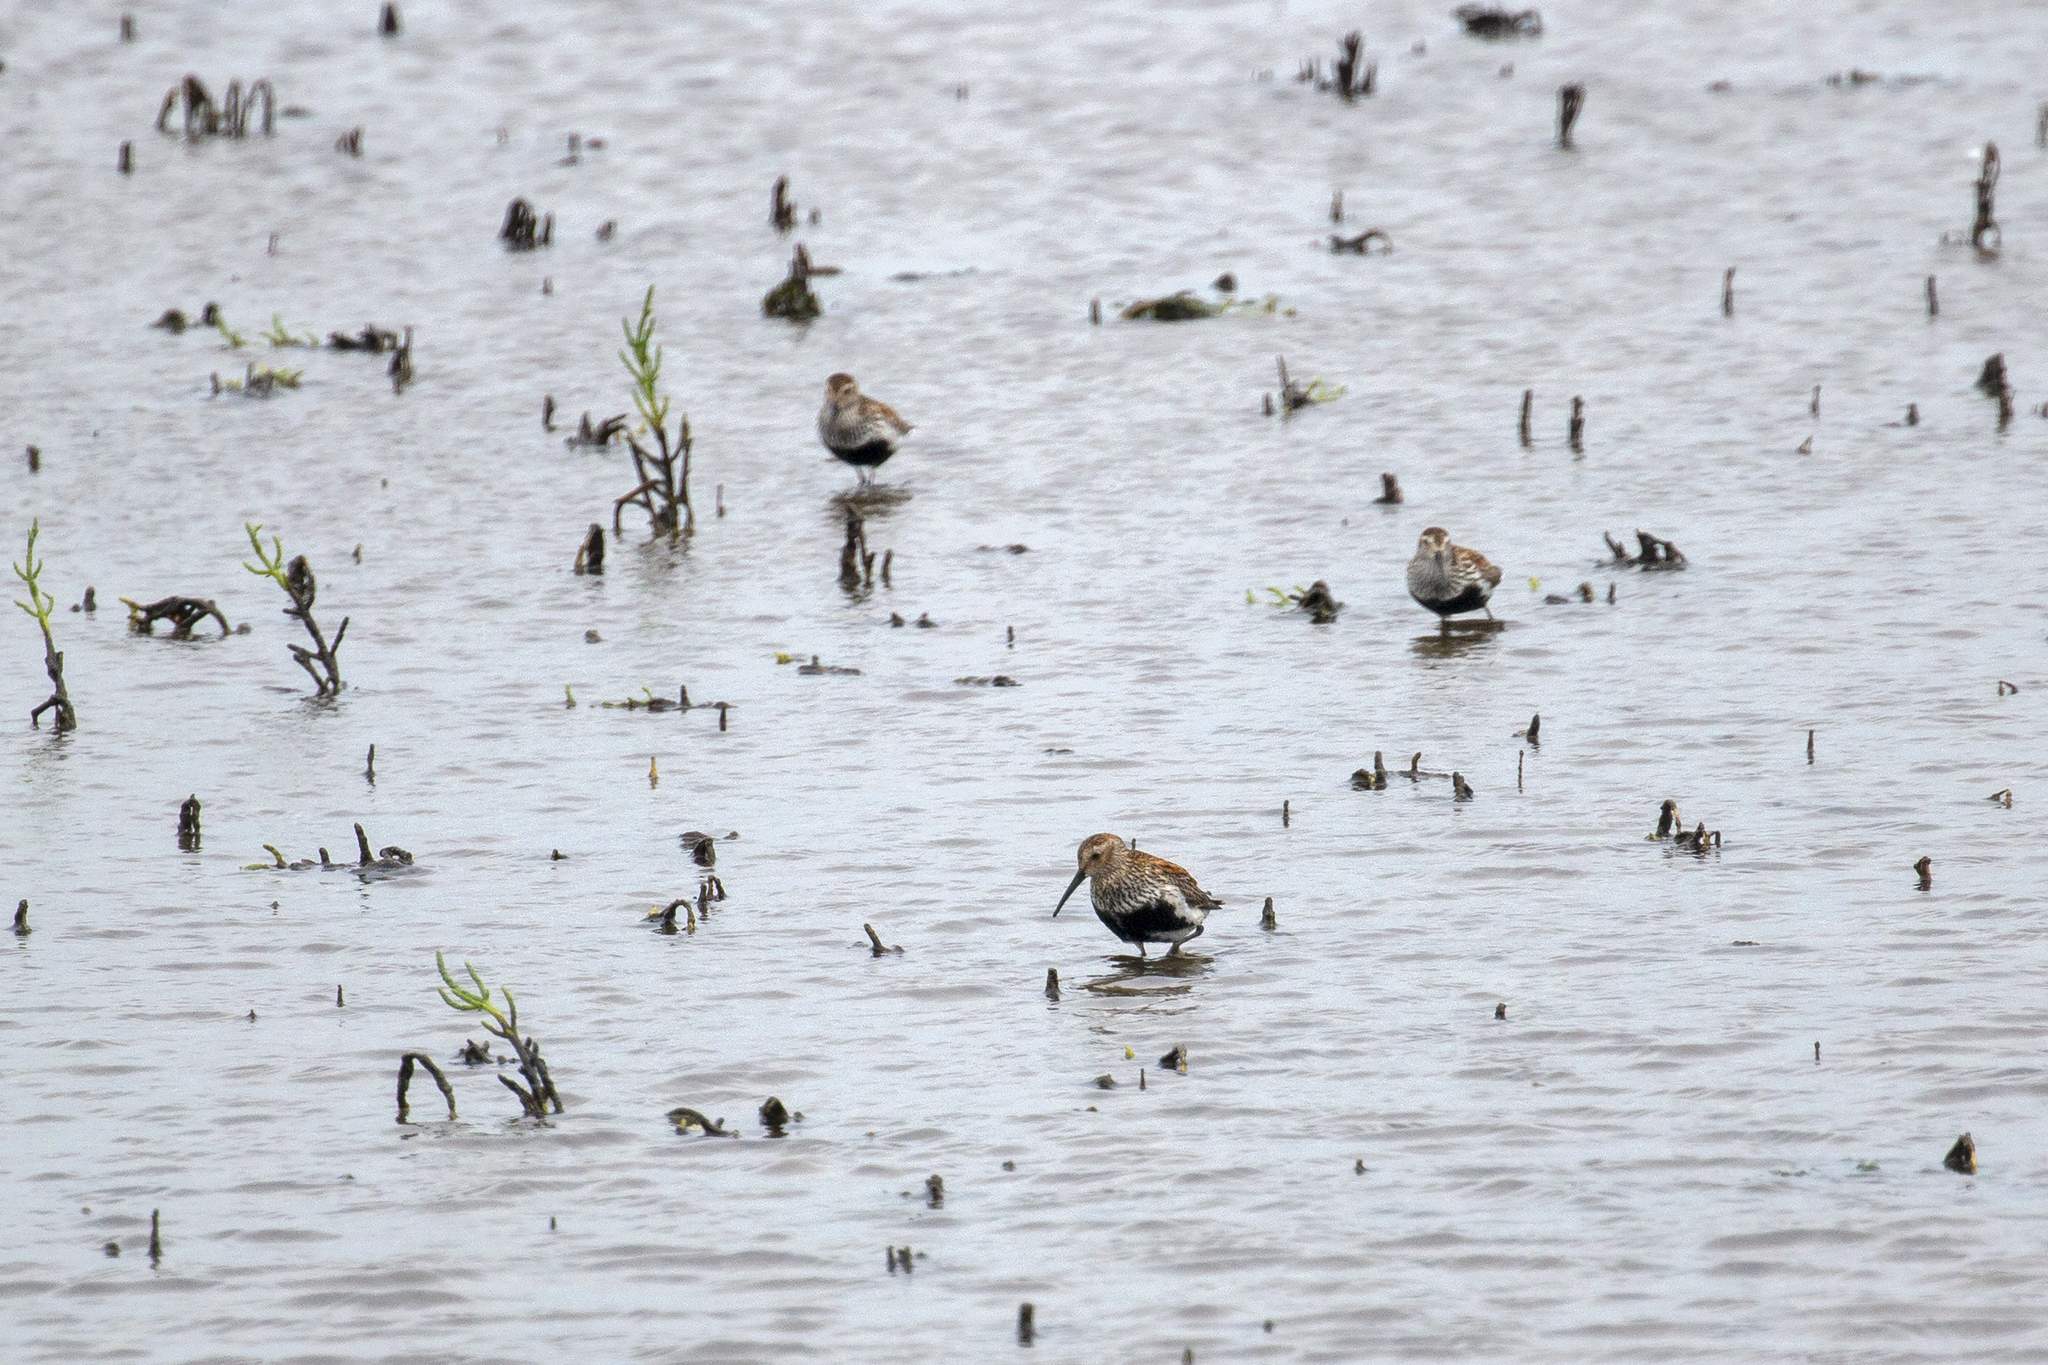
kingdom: Animalia
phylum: Chordata
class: Aves
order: Charadriiformes
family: Scolopacidae
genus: Calidris
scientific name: Calidris alpina
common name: Dunlin
